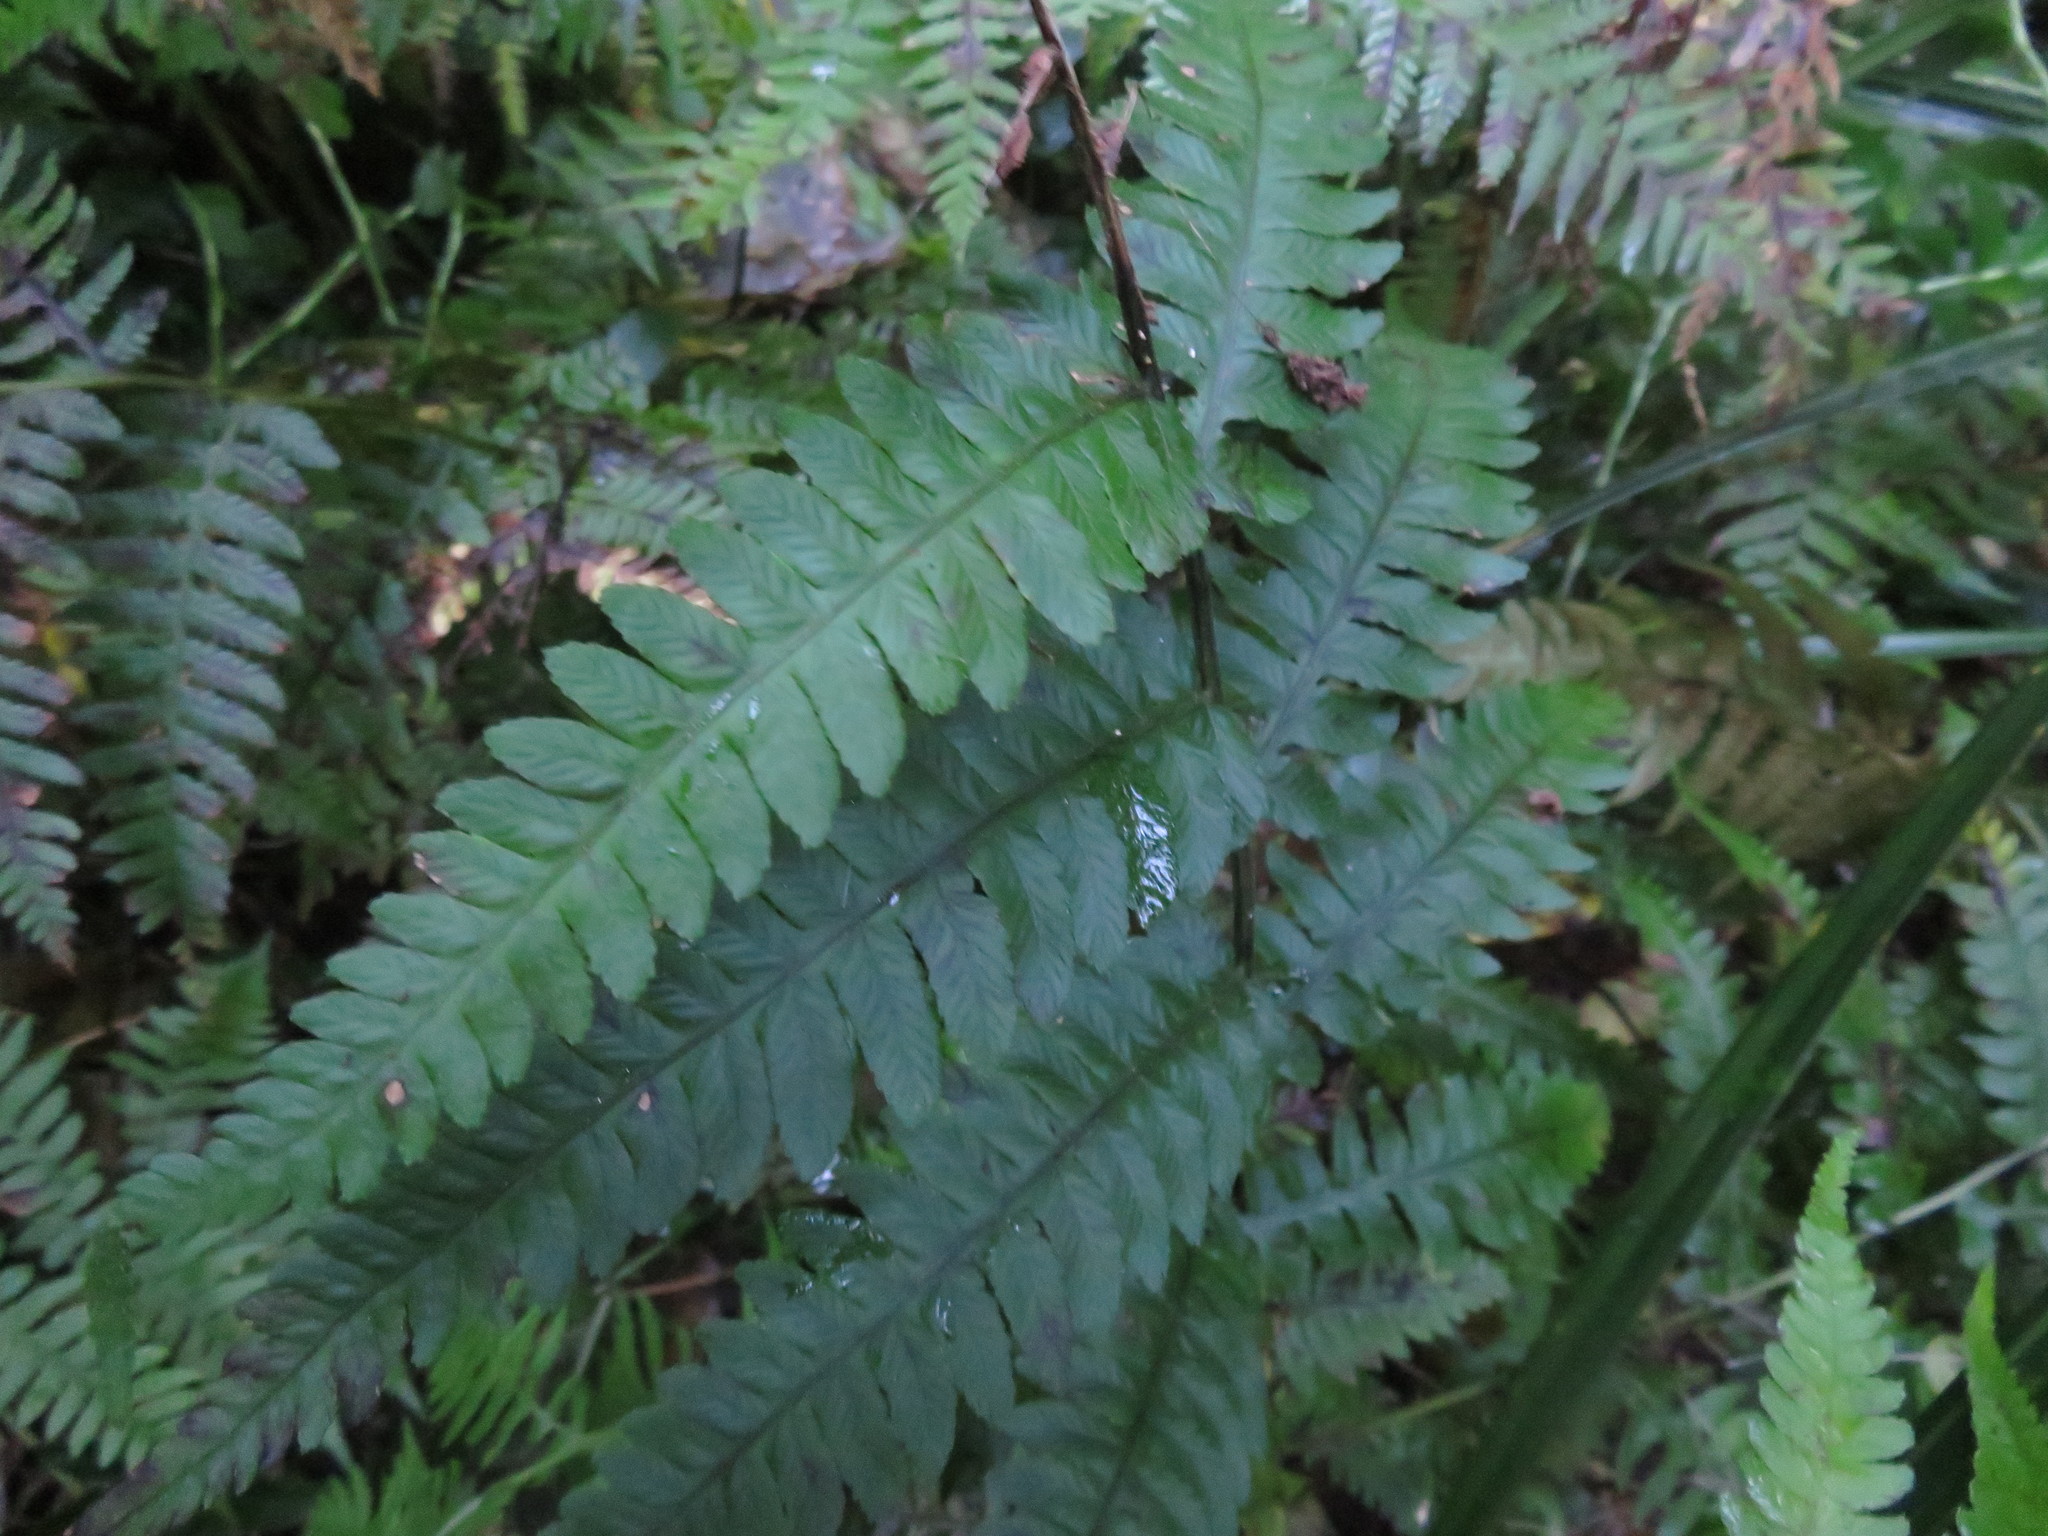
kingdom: Plantae
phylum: Tracheophyta
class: Polypodiopsida
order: Polypodiales
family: Thelypteridaceae
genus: Pakau
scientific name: Pakau pennigera
